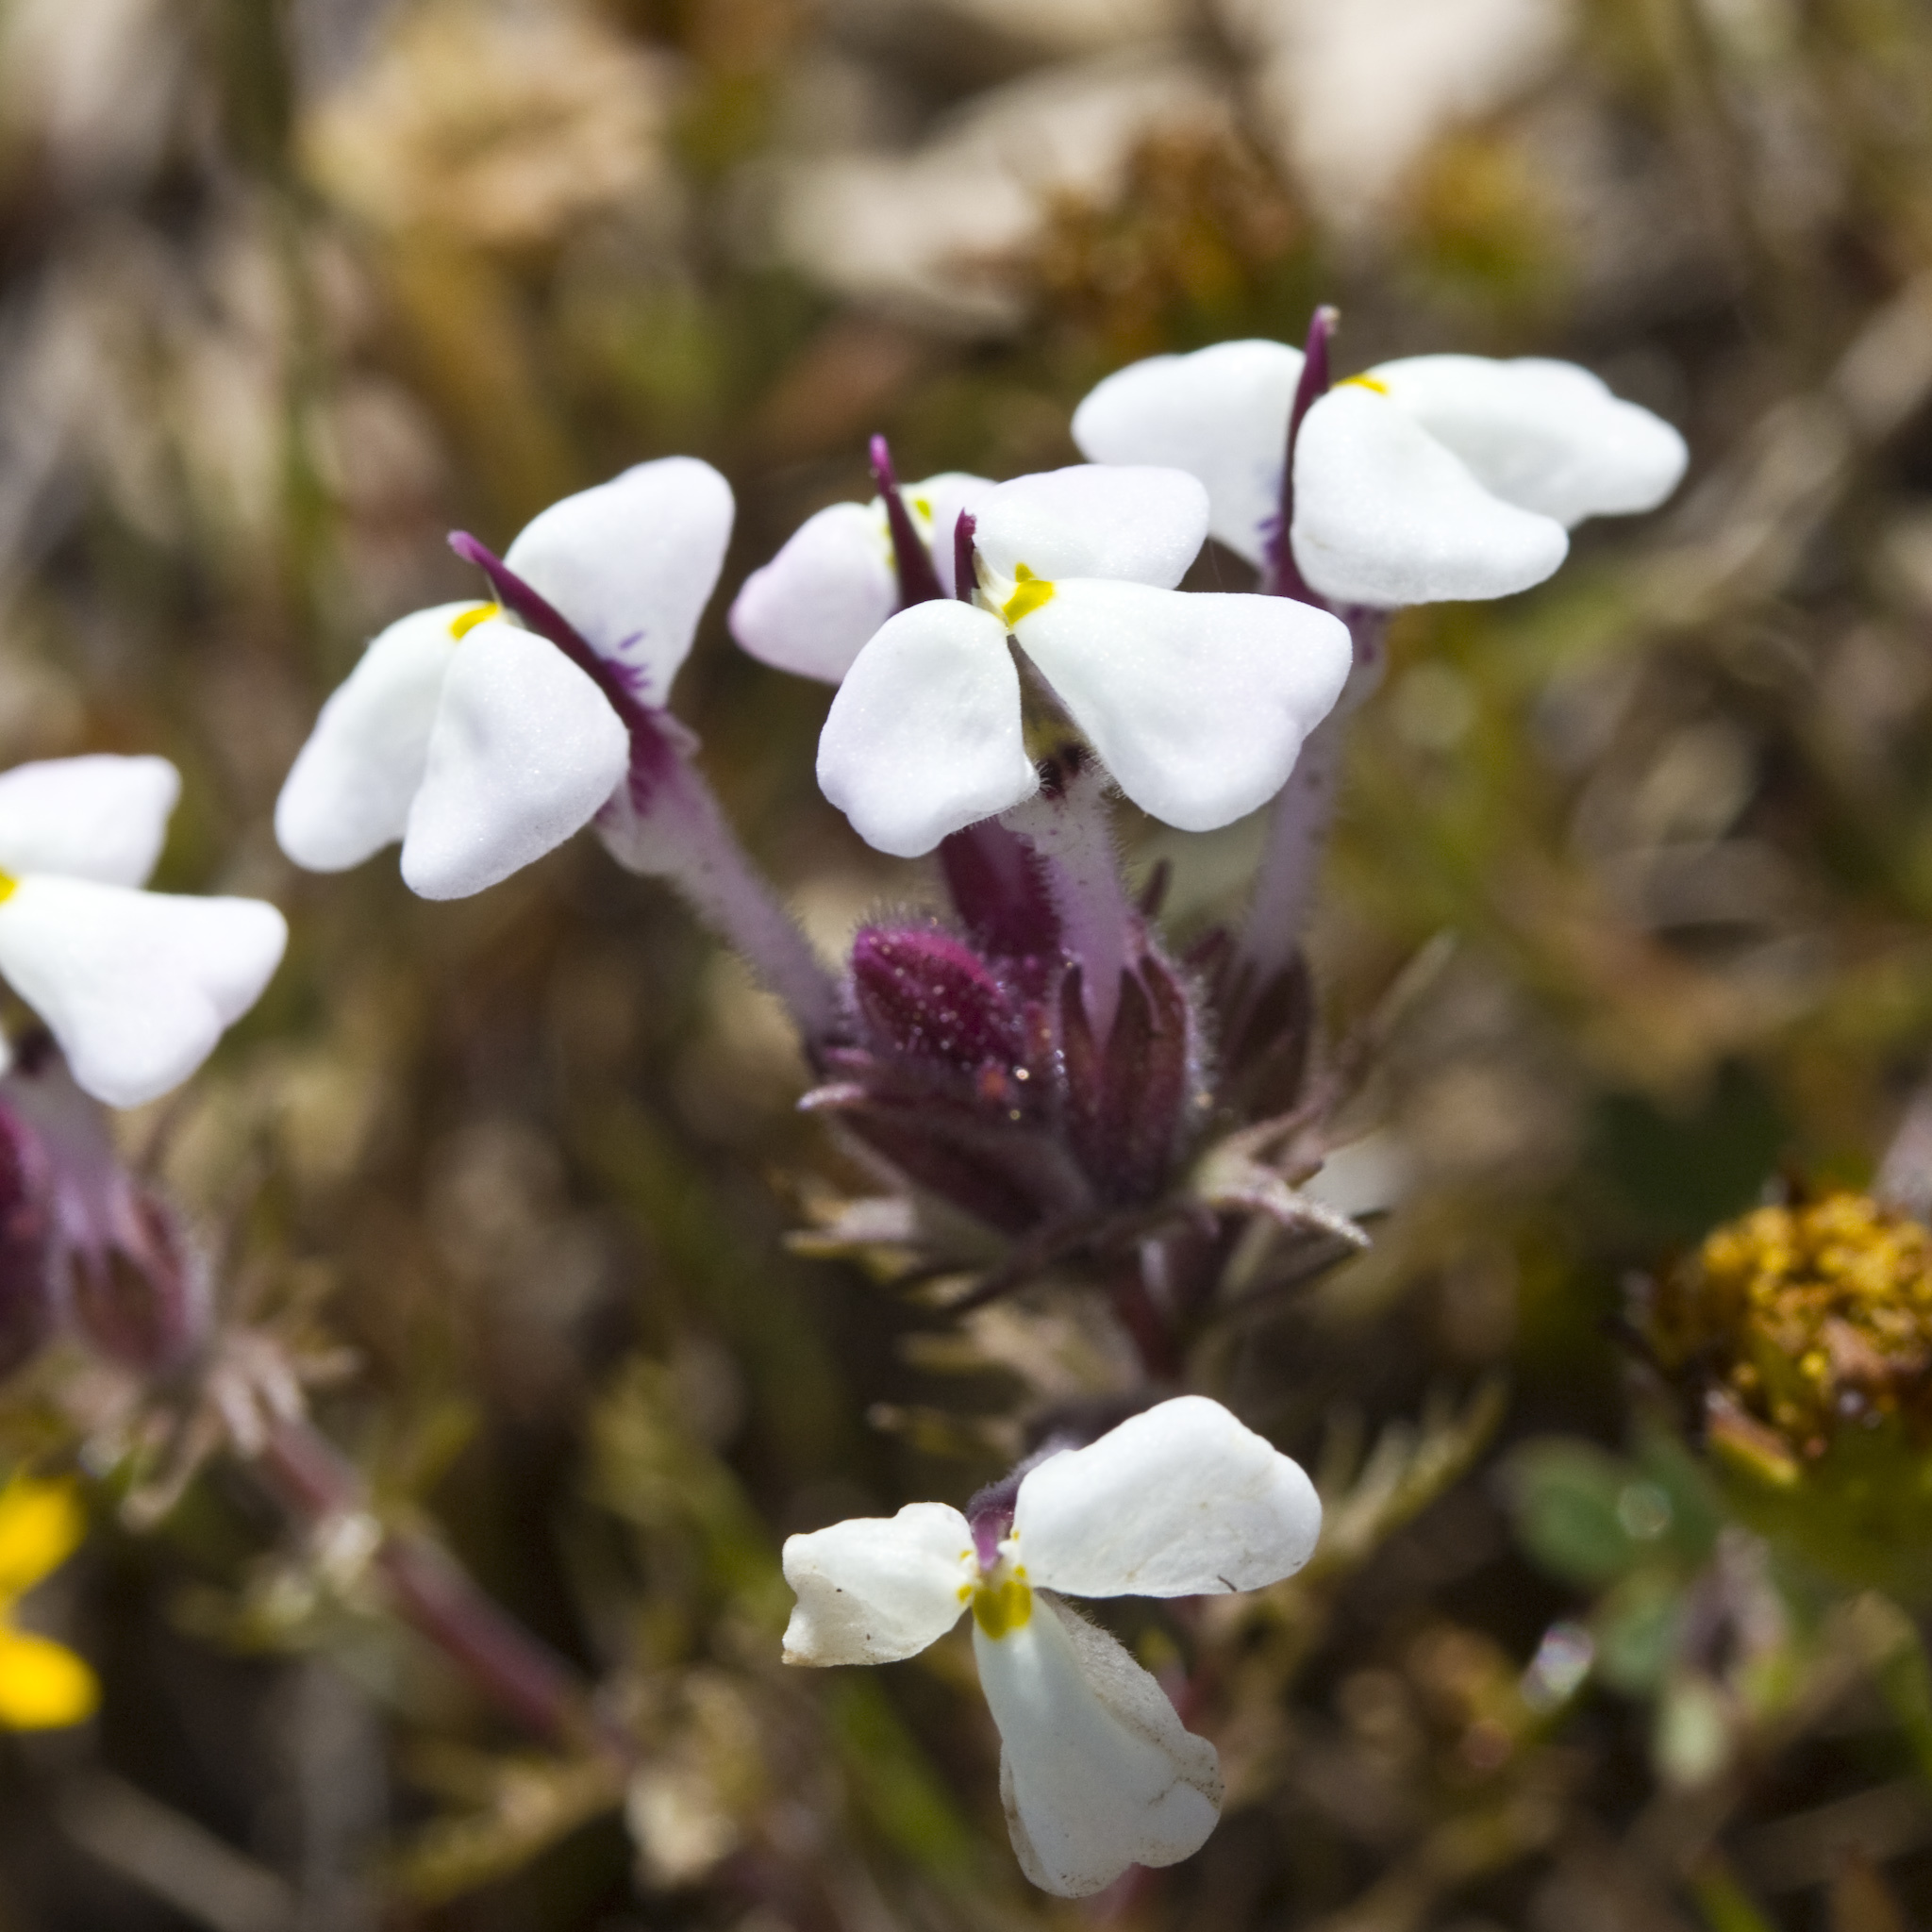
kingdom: Plantae
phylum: Tracheophyta
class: Magnoliopsida
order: Lamiales
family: Orobanchaceae
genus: Triphysaria
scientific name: Triphysaria eriantha
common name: Johnny-tuck
